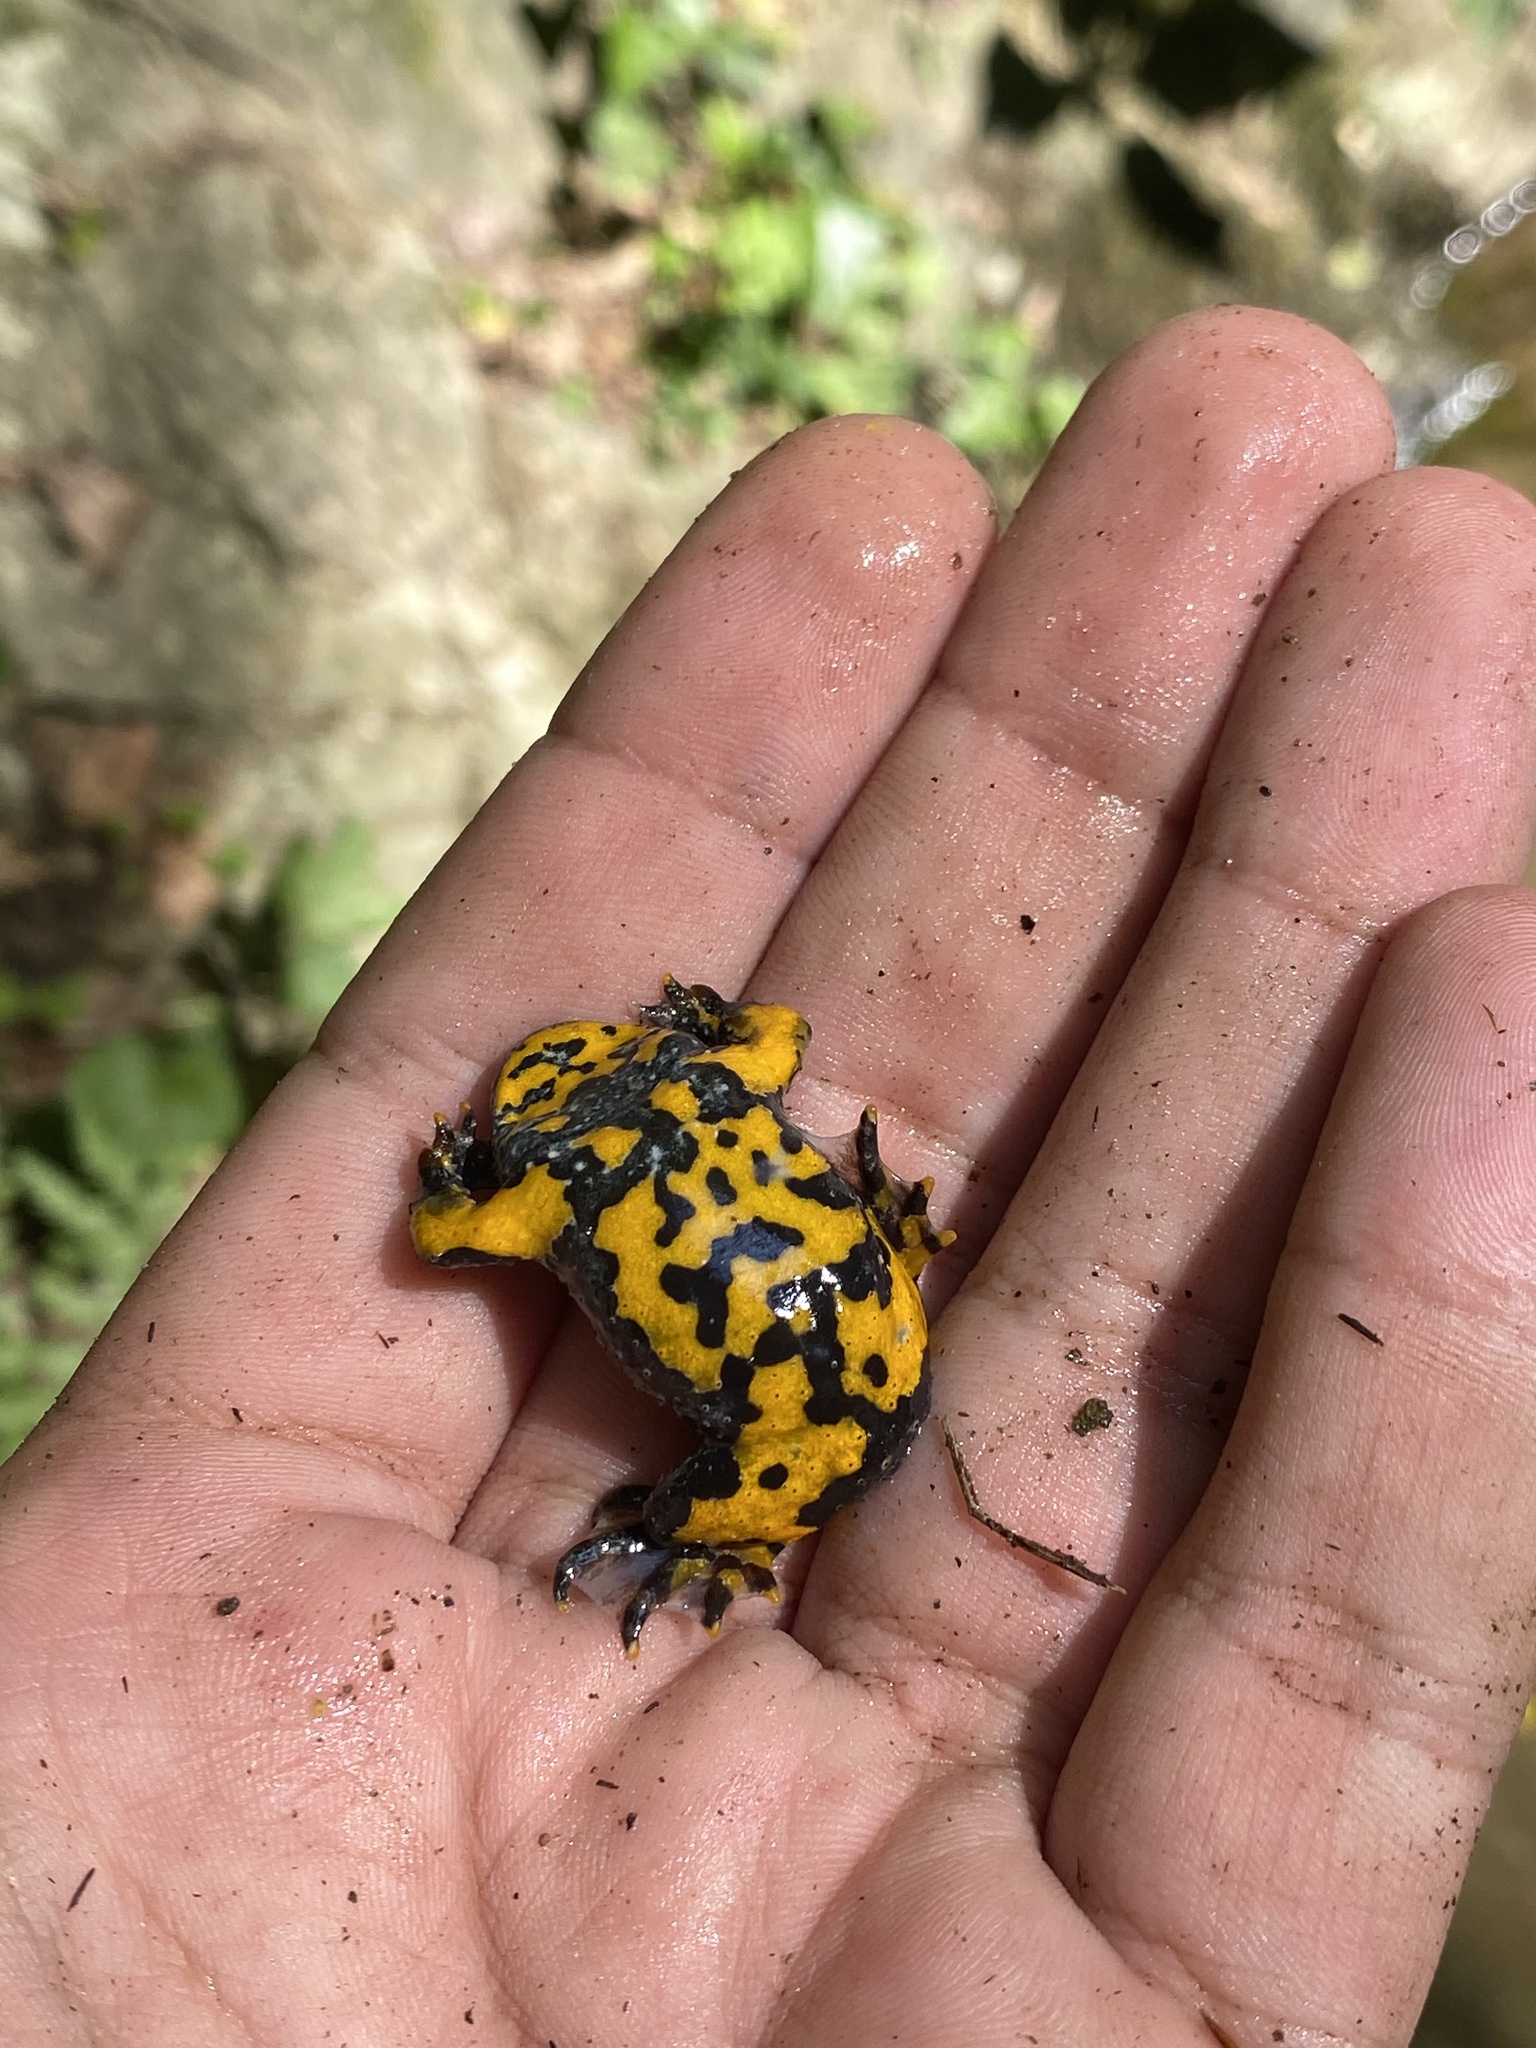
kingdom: Animalia
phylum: Chordata
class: Amphibia
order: Anura
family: Bombinatoridae
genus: Bombina
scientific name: Bombina variegata
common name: Yellow-bellied toad
